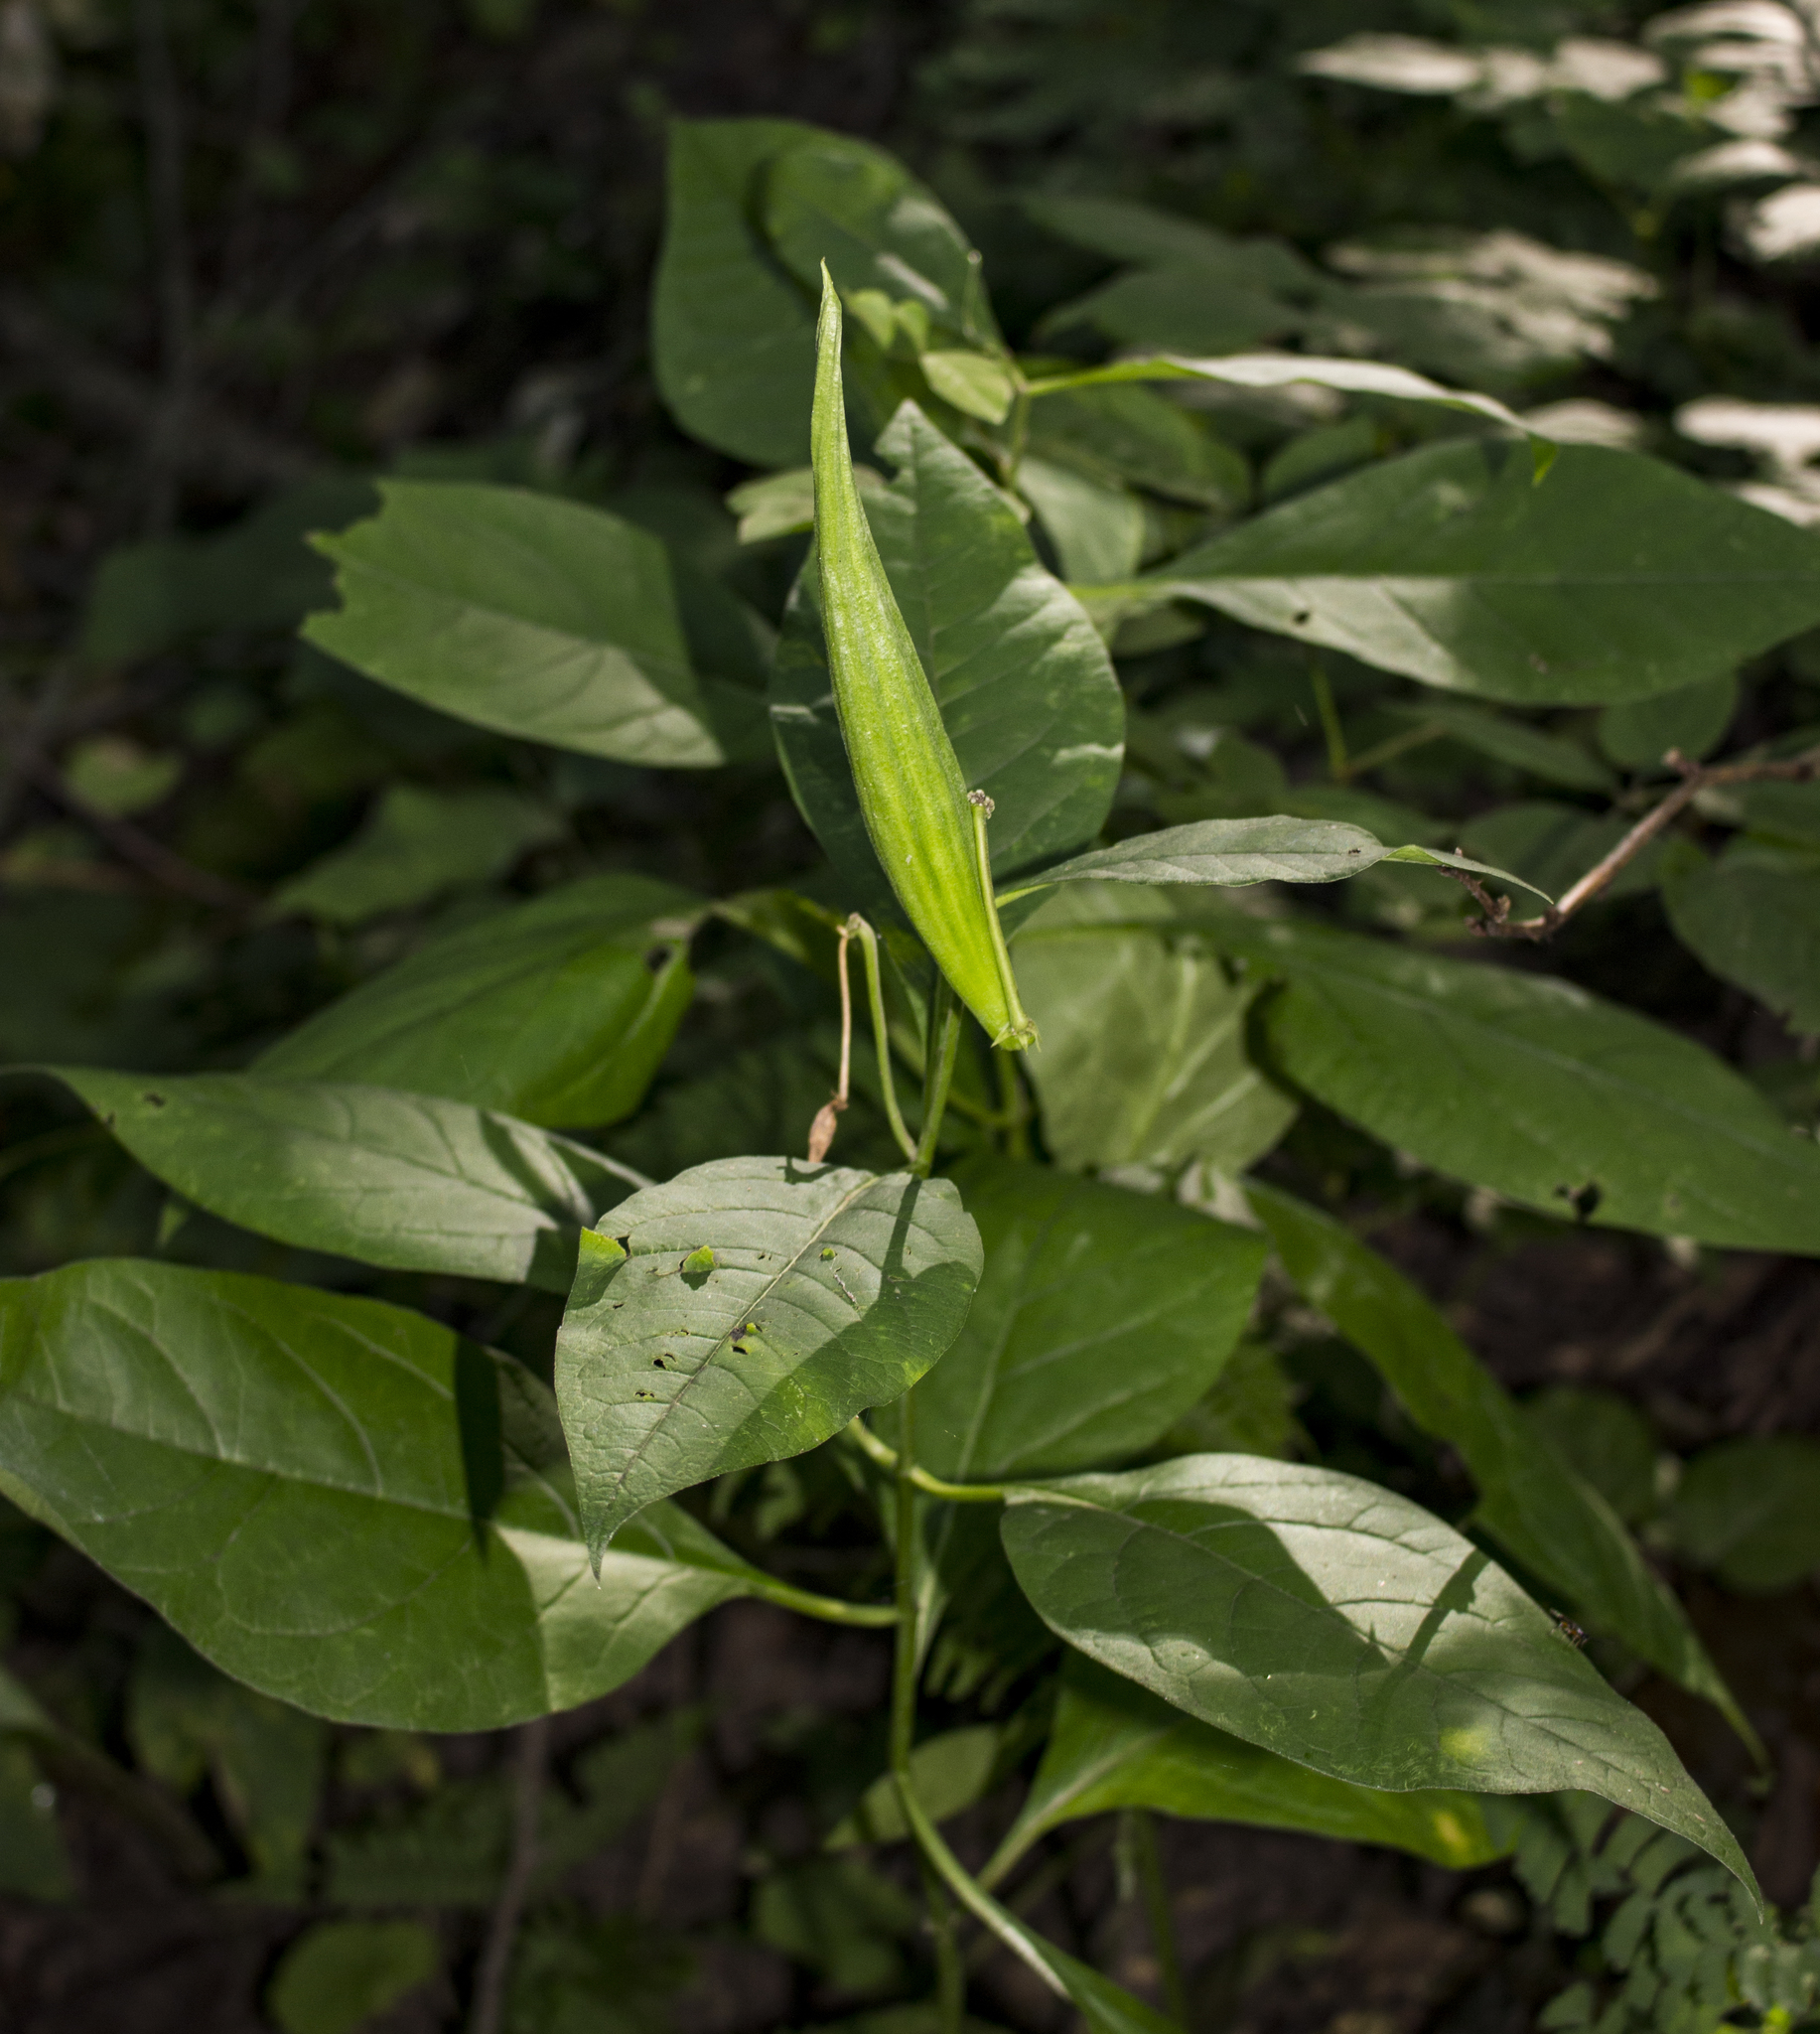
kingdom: Plantae
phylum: Tracheophyta
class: Magnoliopsida
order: Gentianales
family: Apocynaceae
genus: Asclepias
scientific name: Asclepias exaltata
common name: Poke milkweed
